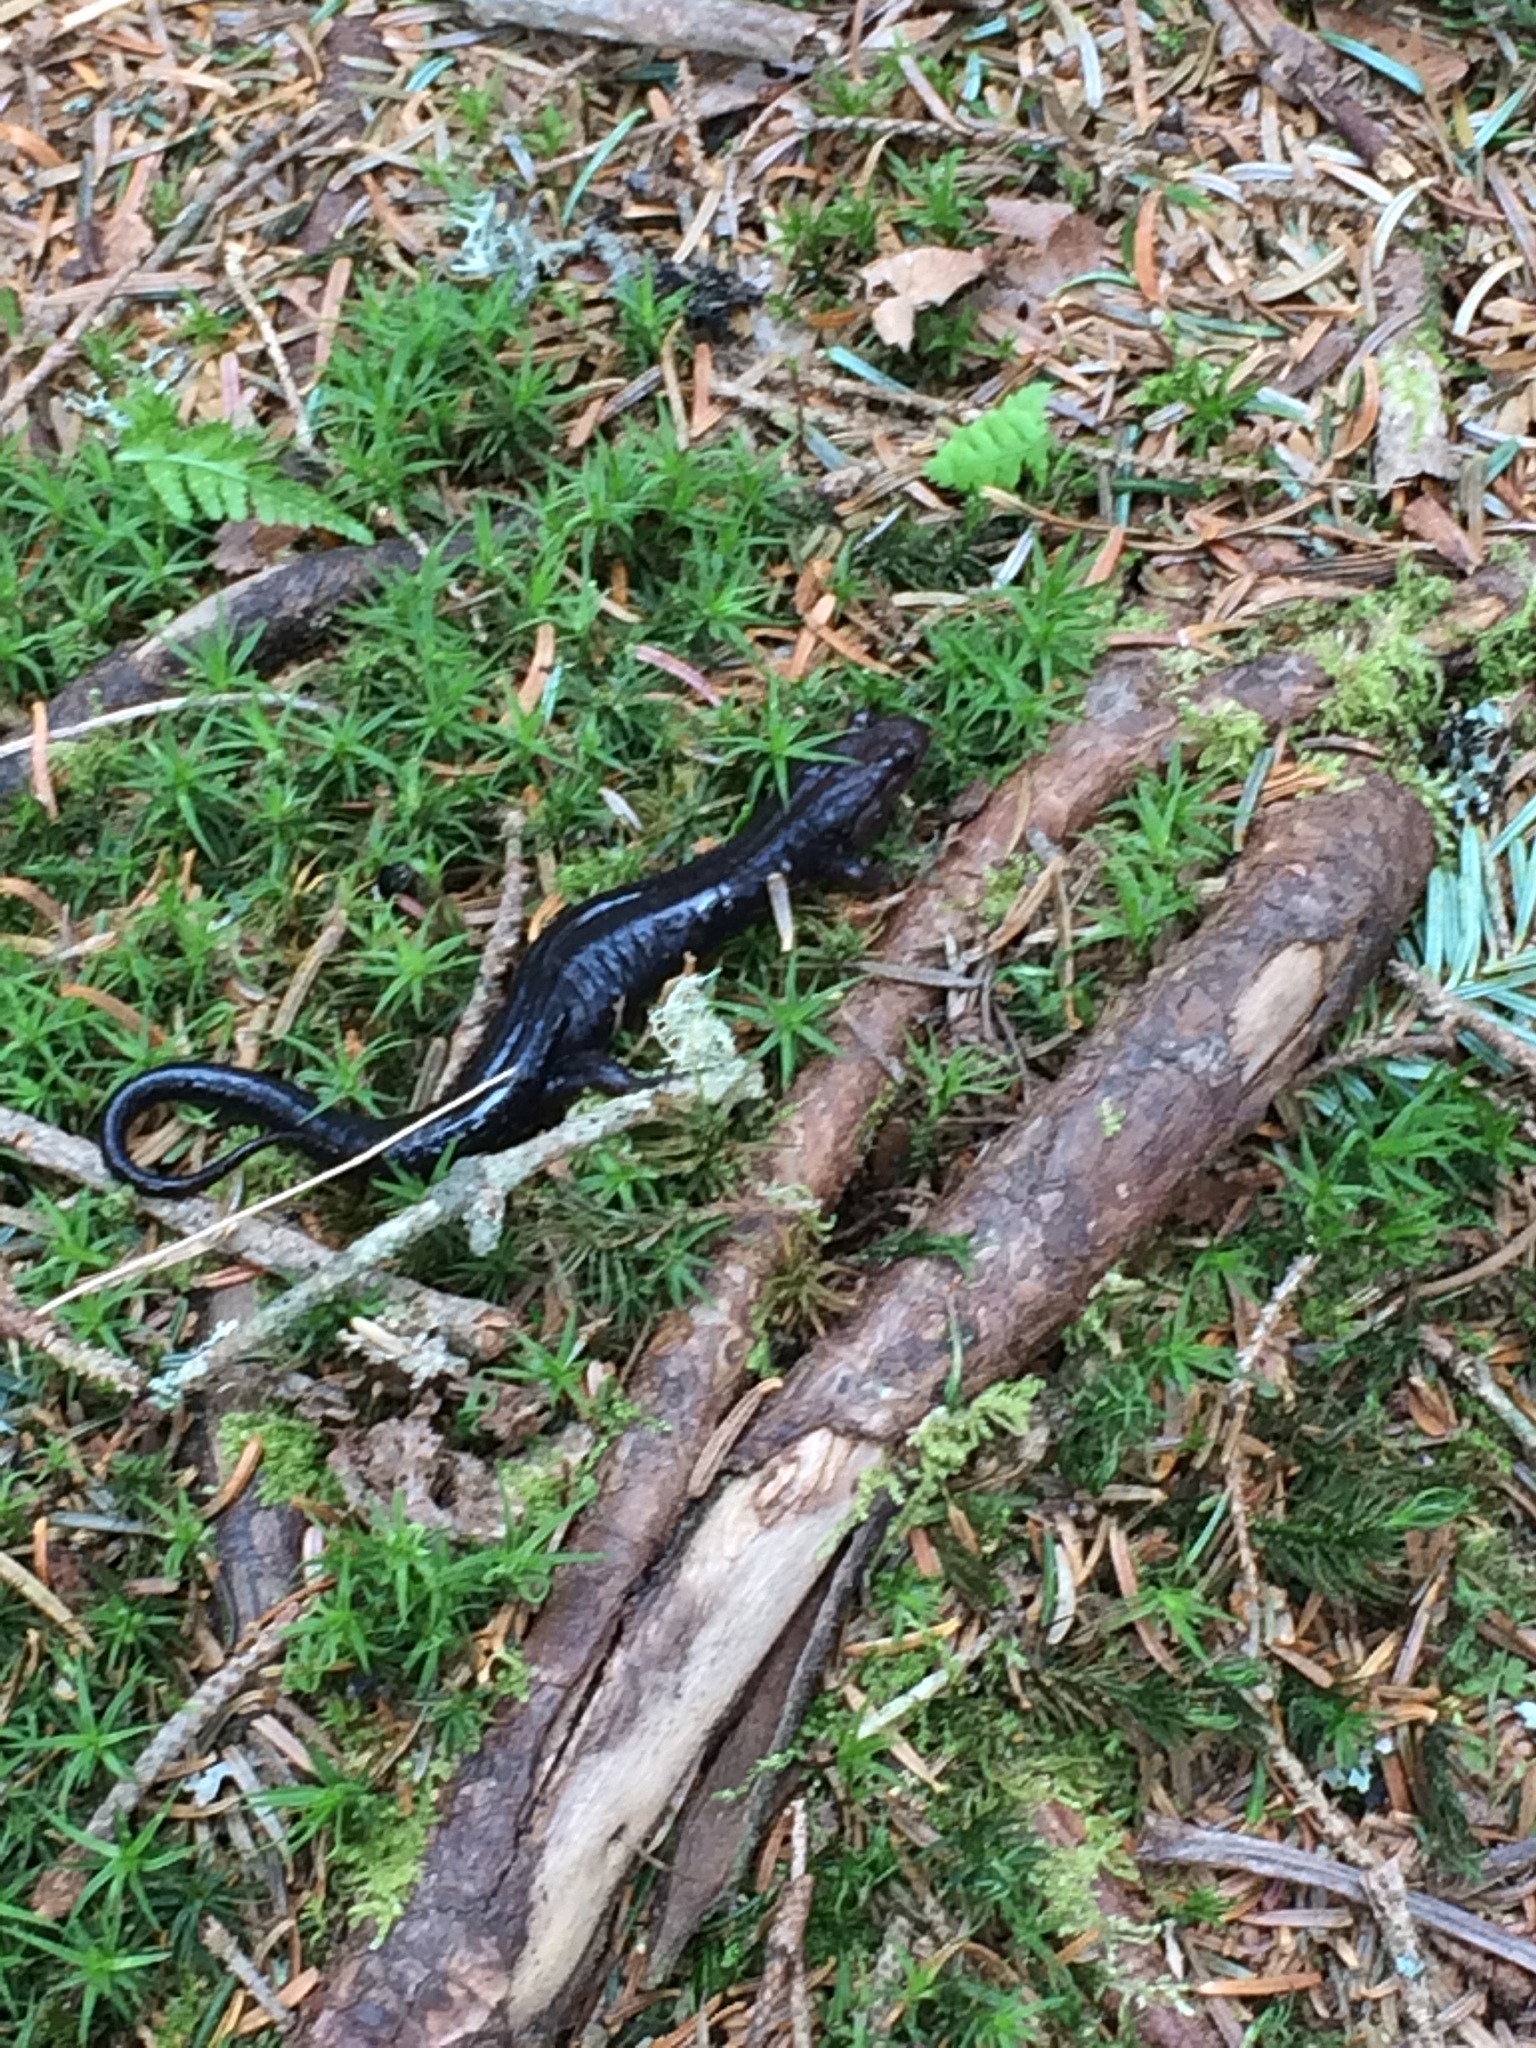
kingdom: Animalia
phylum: Chordata
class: Amphibia
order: Caudata
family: Plethodontidae
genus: Desmognathus
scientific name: Desmognathus carolinensis
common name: Carolina mountain dusky salamander
